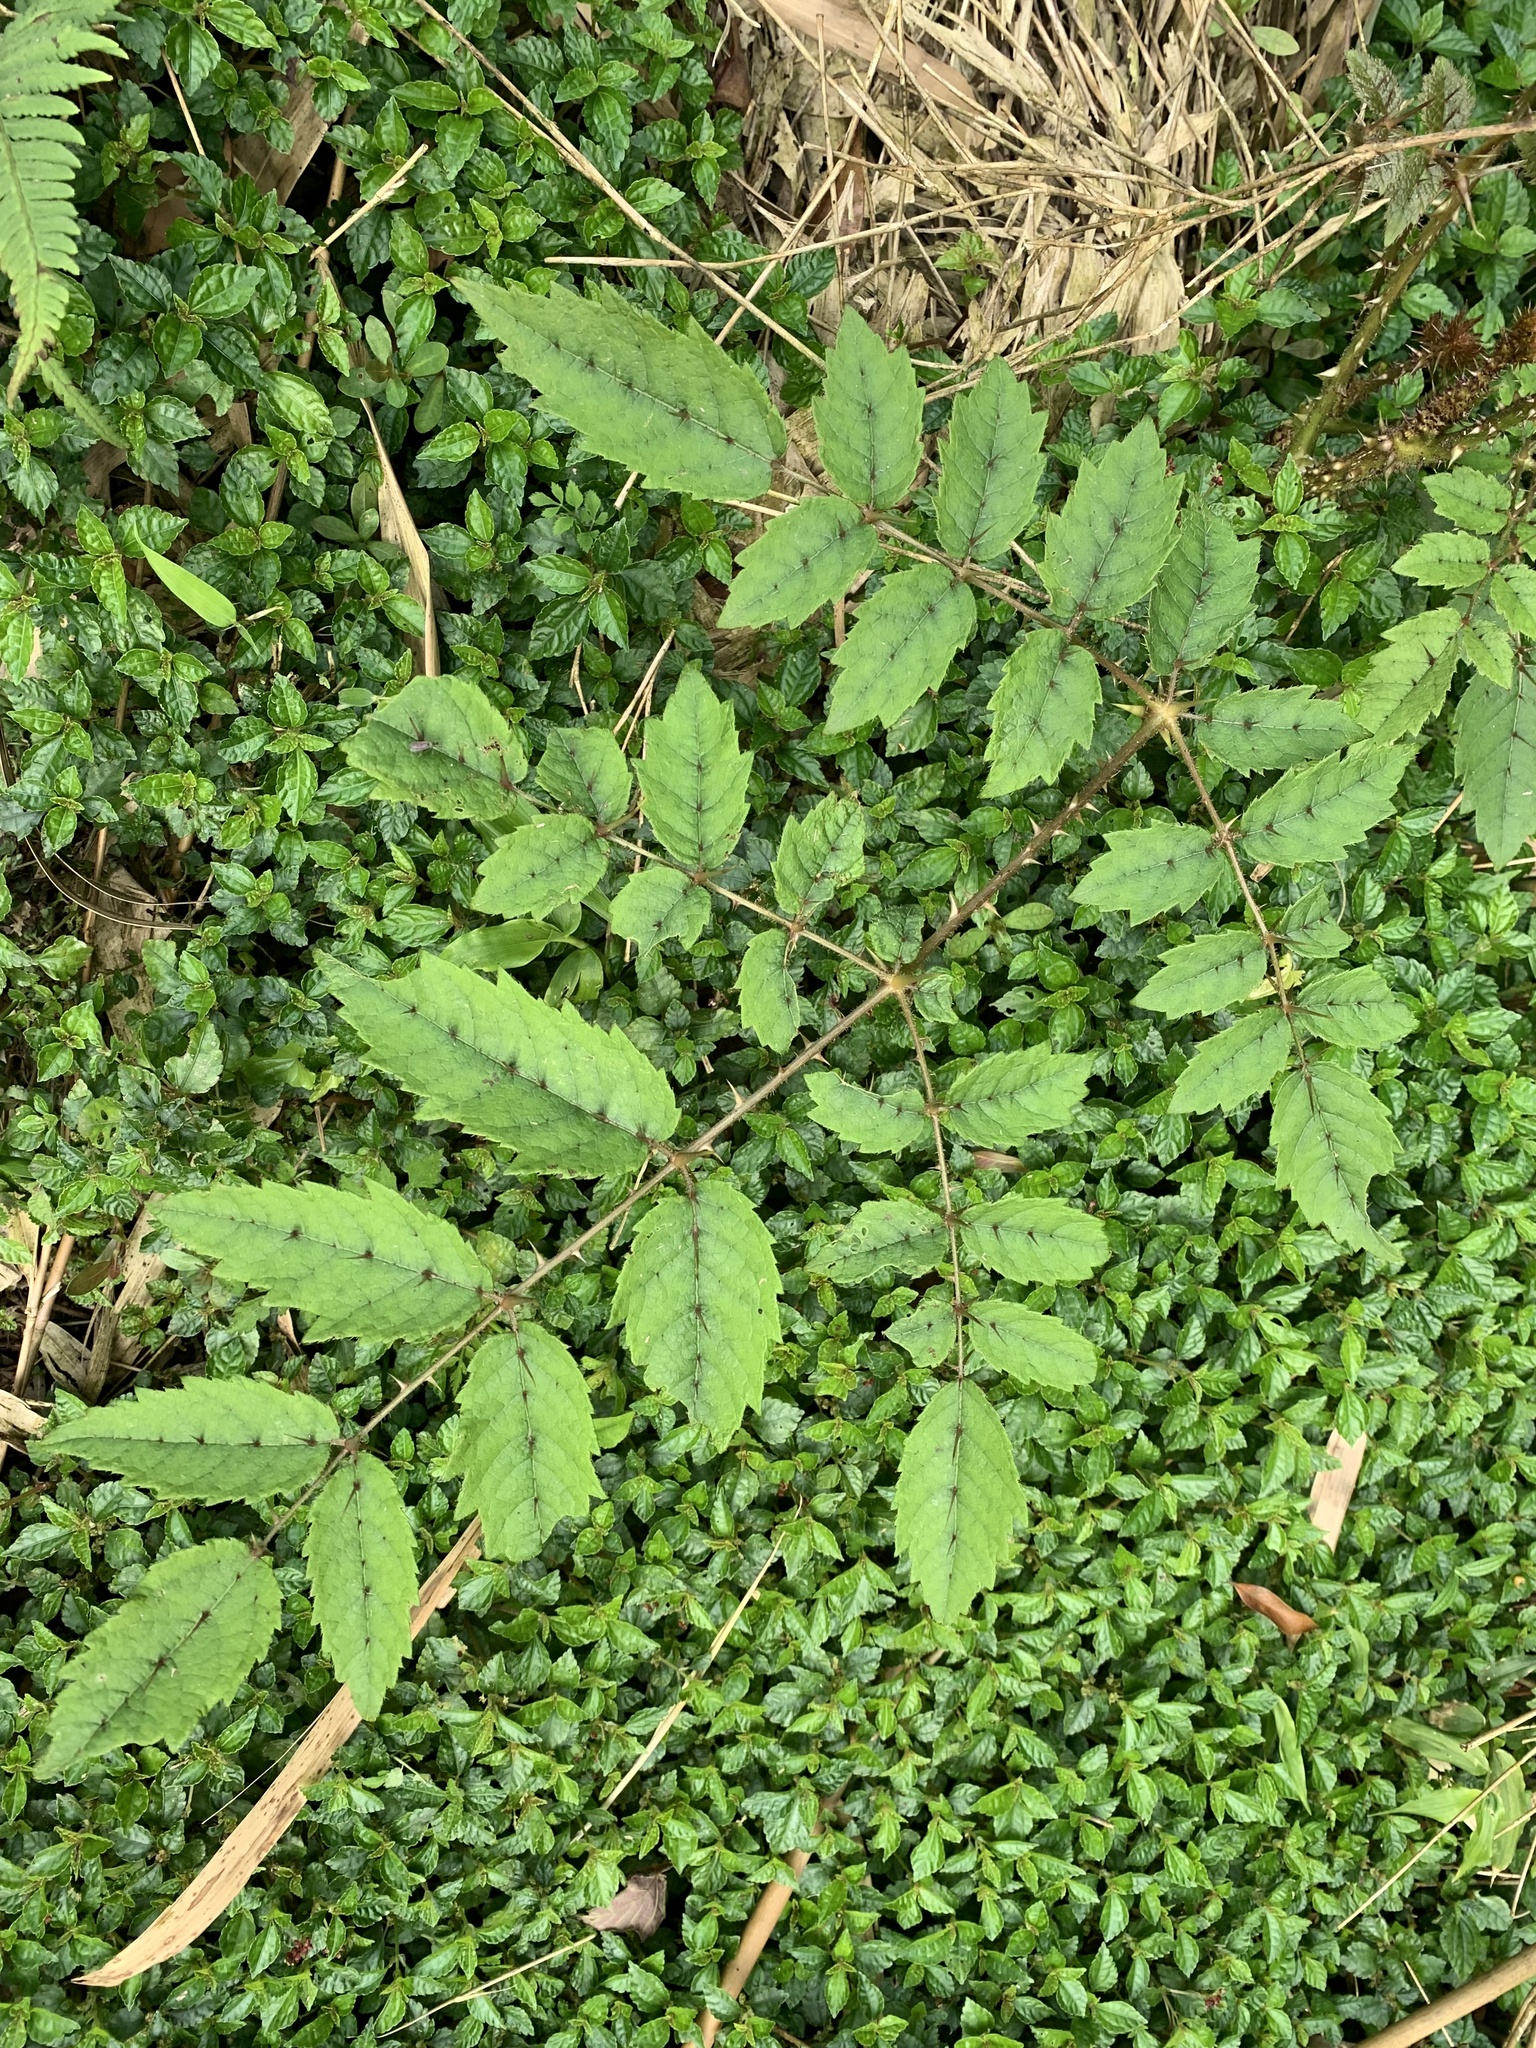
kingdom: Plantae
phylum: Tracheophyta
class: Magnoliopsida
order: Apiales
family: Araliaceae
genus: Aralia
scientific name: Aralia decaisneana
